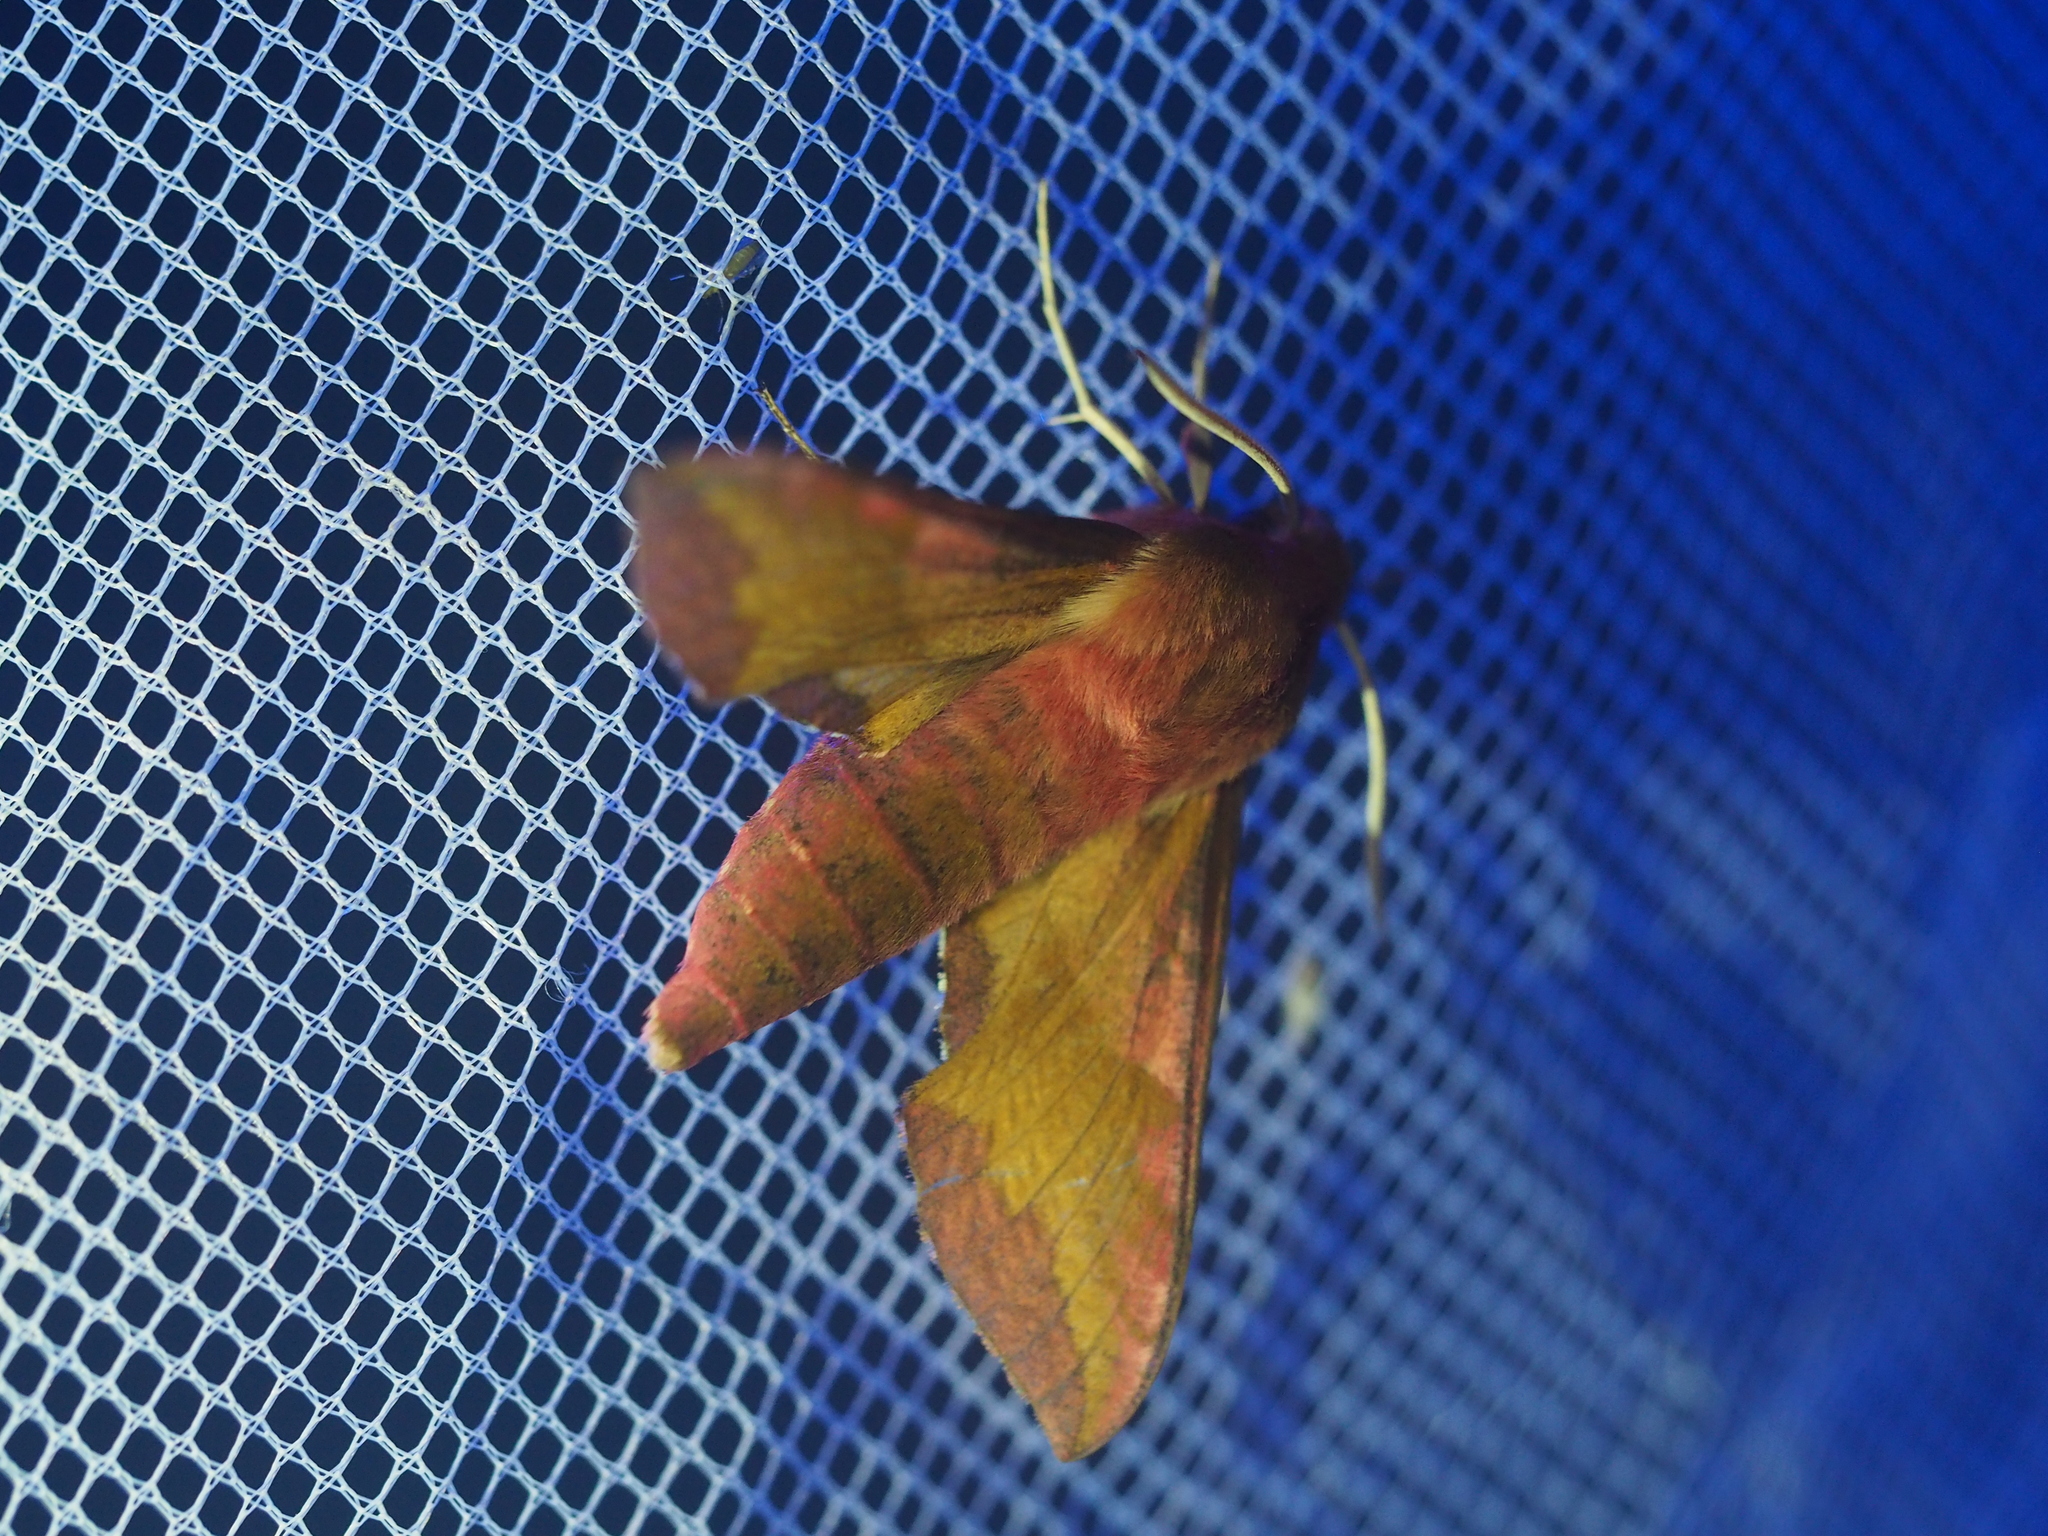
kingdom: Animalia
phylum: Arthropoda
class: Insecta
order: Lepidoptera
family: Sphingidae
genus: Deilephila
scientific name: Deilephila porcellus
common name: Small elephant hawk-moth
